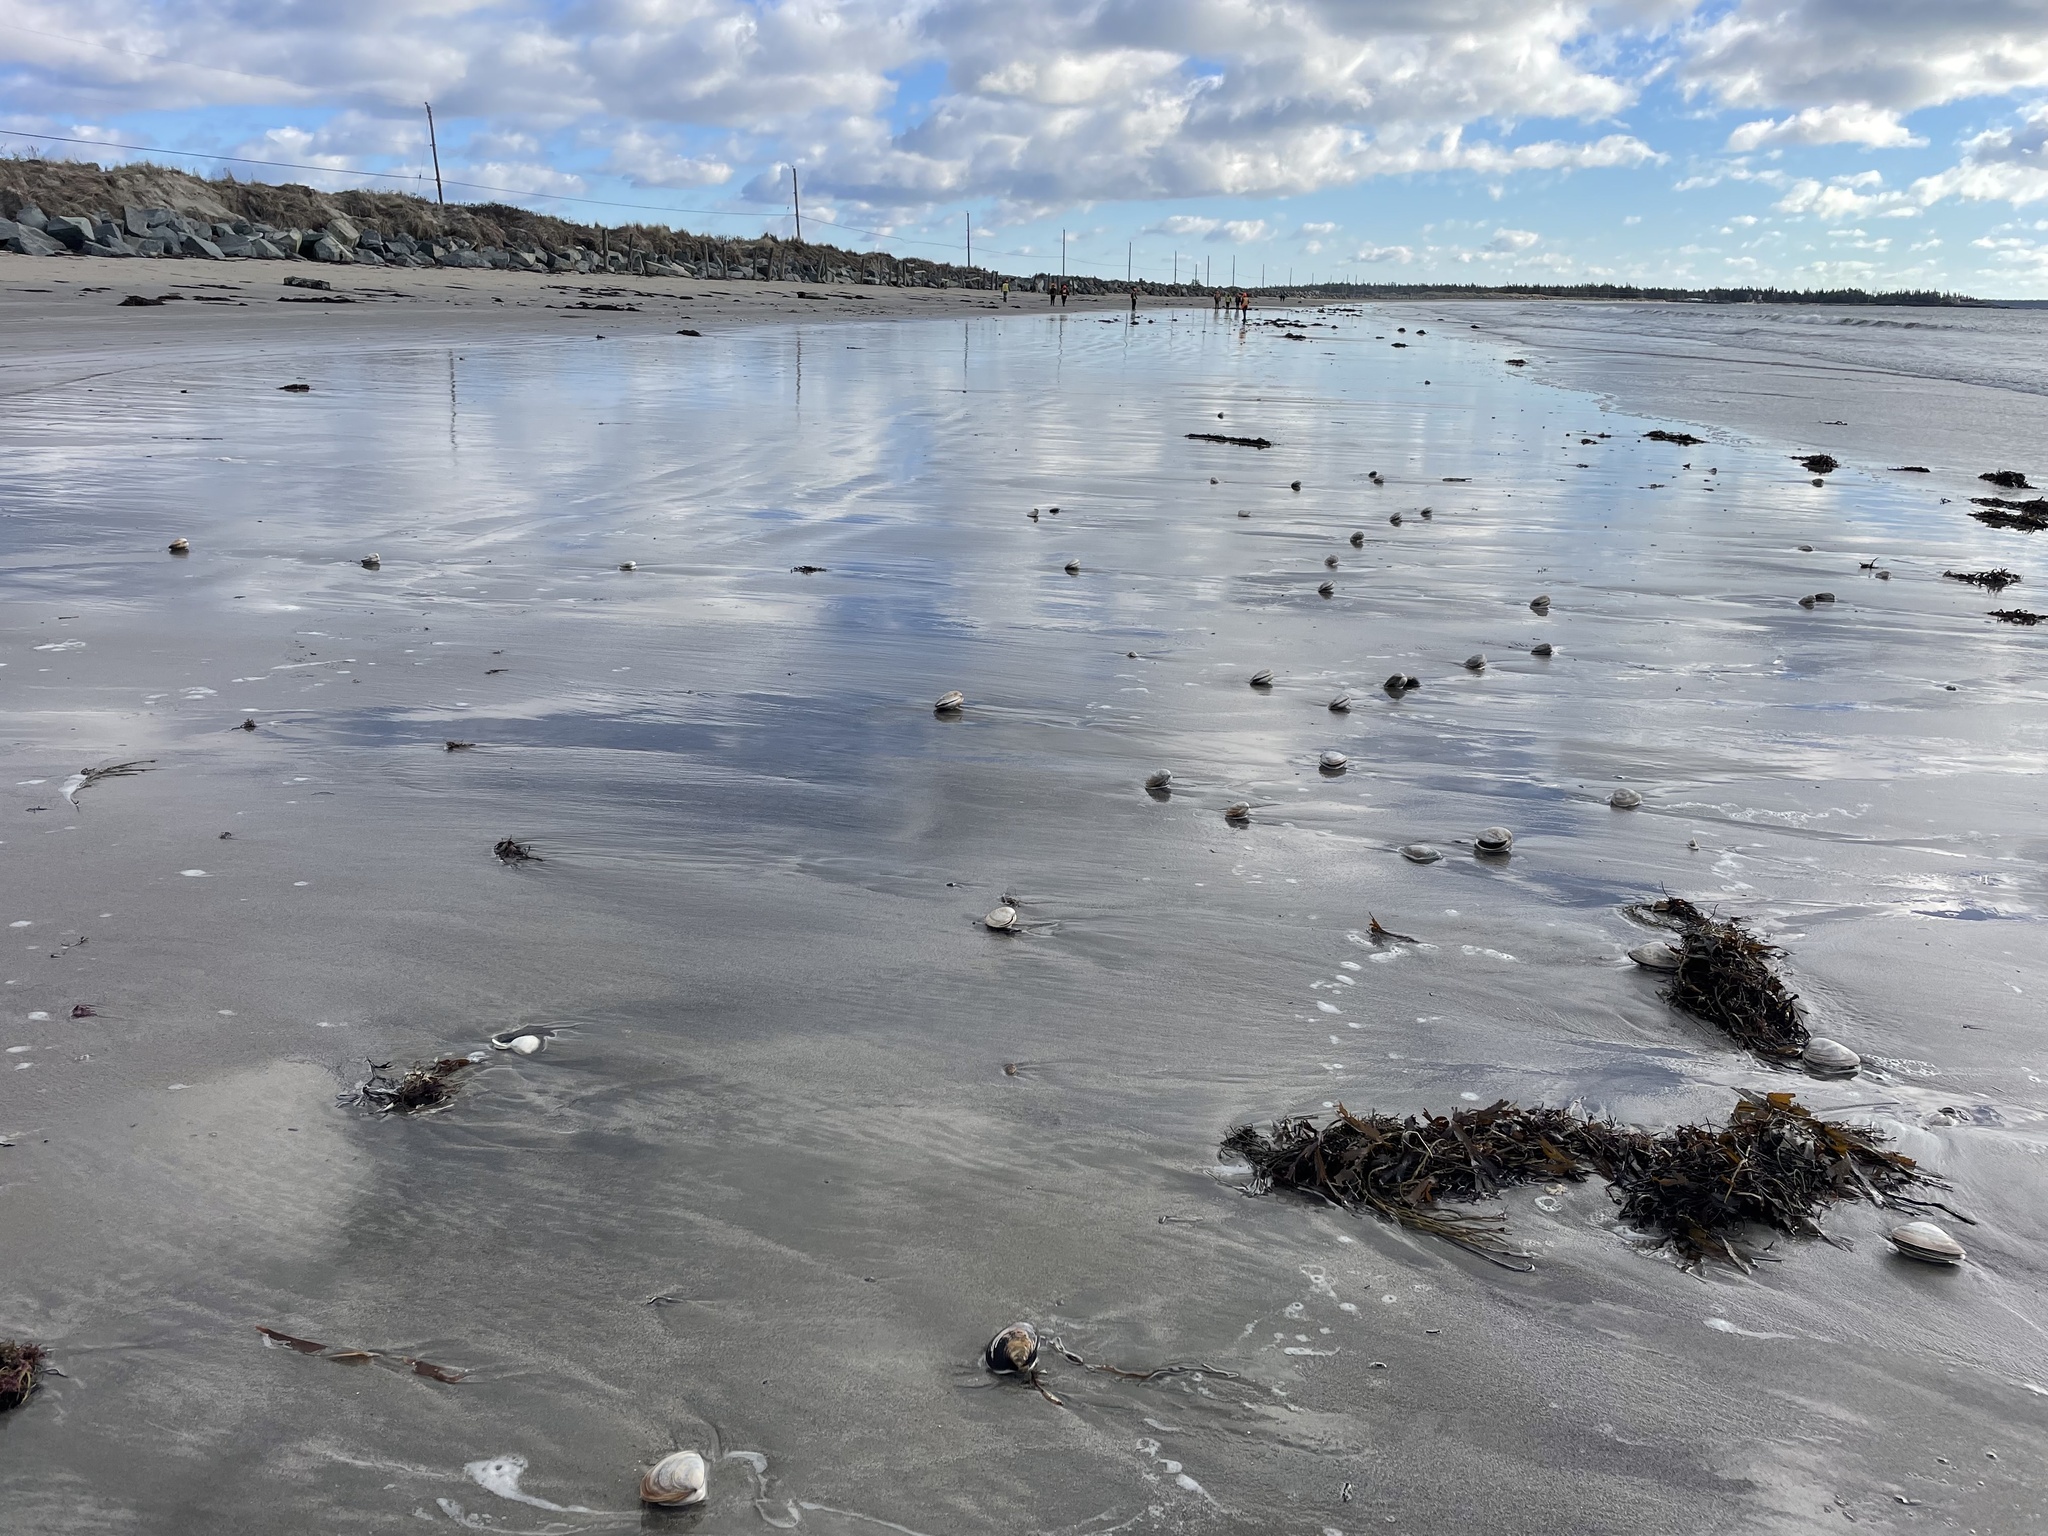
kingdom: Animalia
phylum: Mollusca
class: Bivalvia
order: Venerida
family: Mactridae
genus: Spisula
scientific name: Spisula solidissima
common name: Atlantic surf clam
